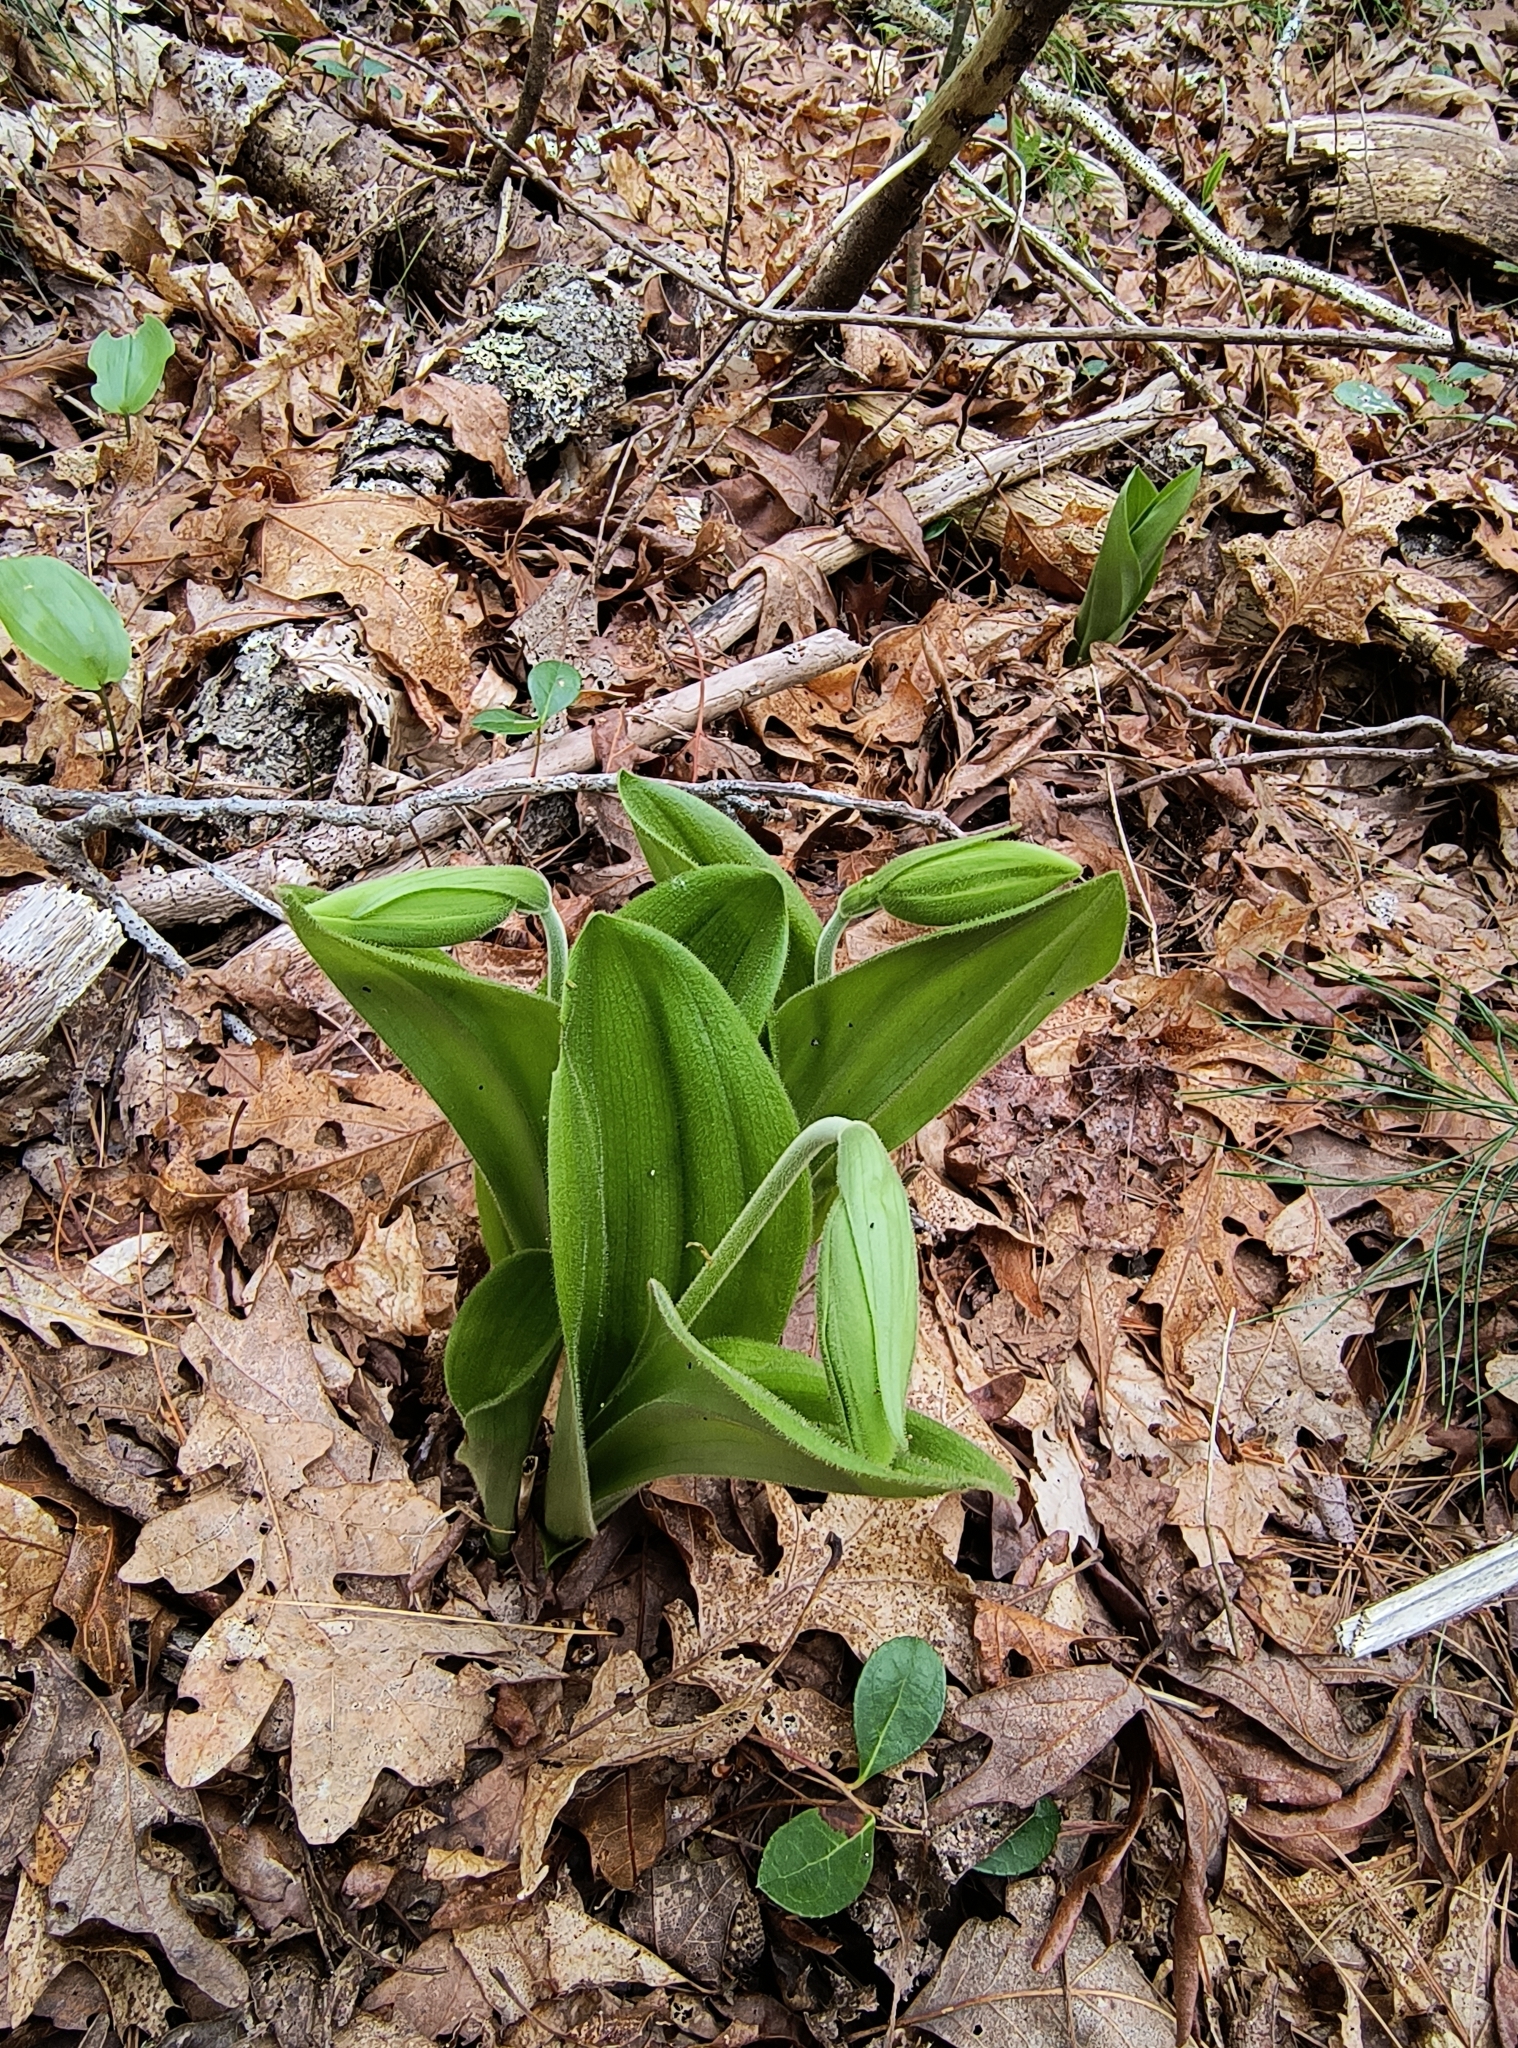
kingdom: Plantae
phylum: Tracheophyta
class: Liliopsida
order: Asparagales
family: Orchidaceae
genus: Cypripedium
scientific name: Cypripedium acaule
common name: Pink lady's-slipper
